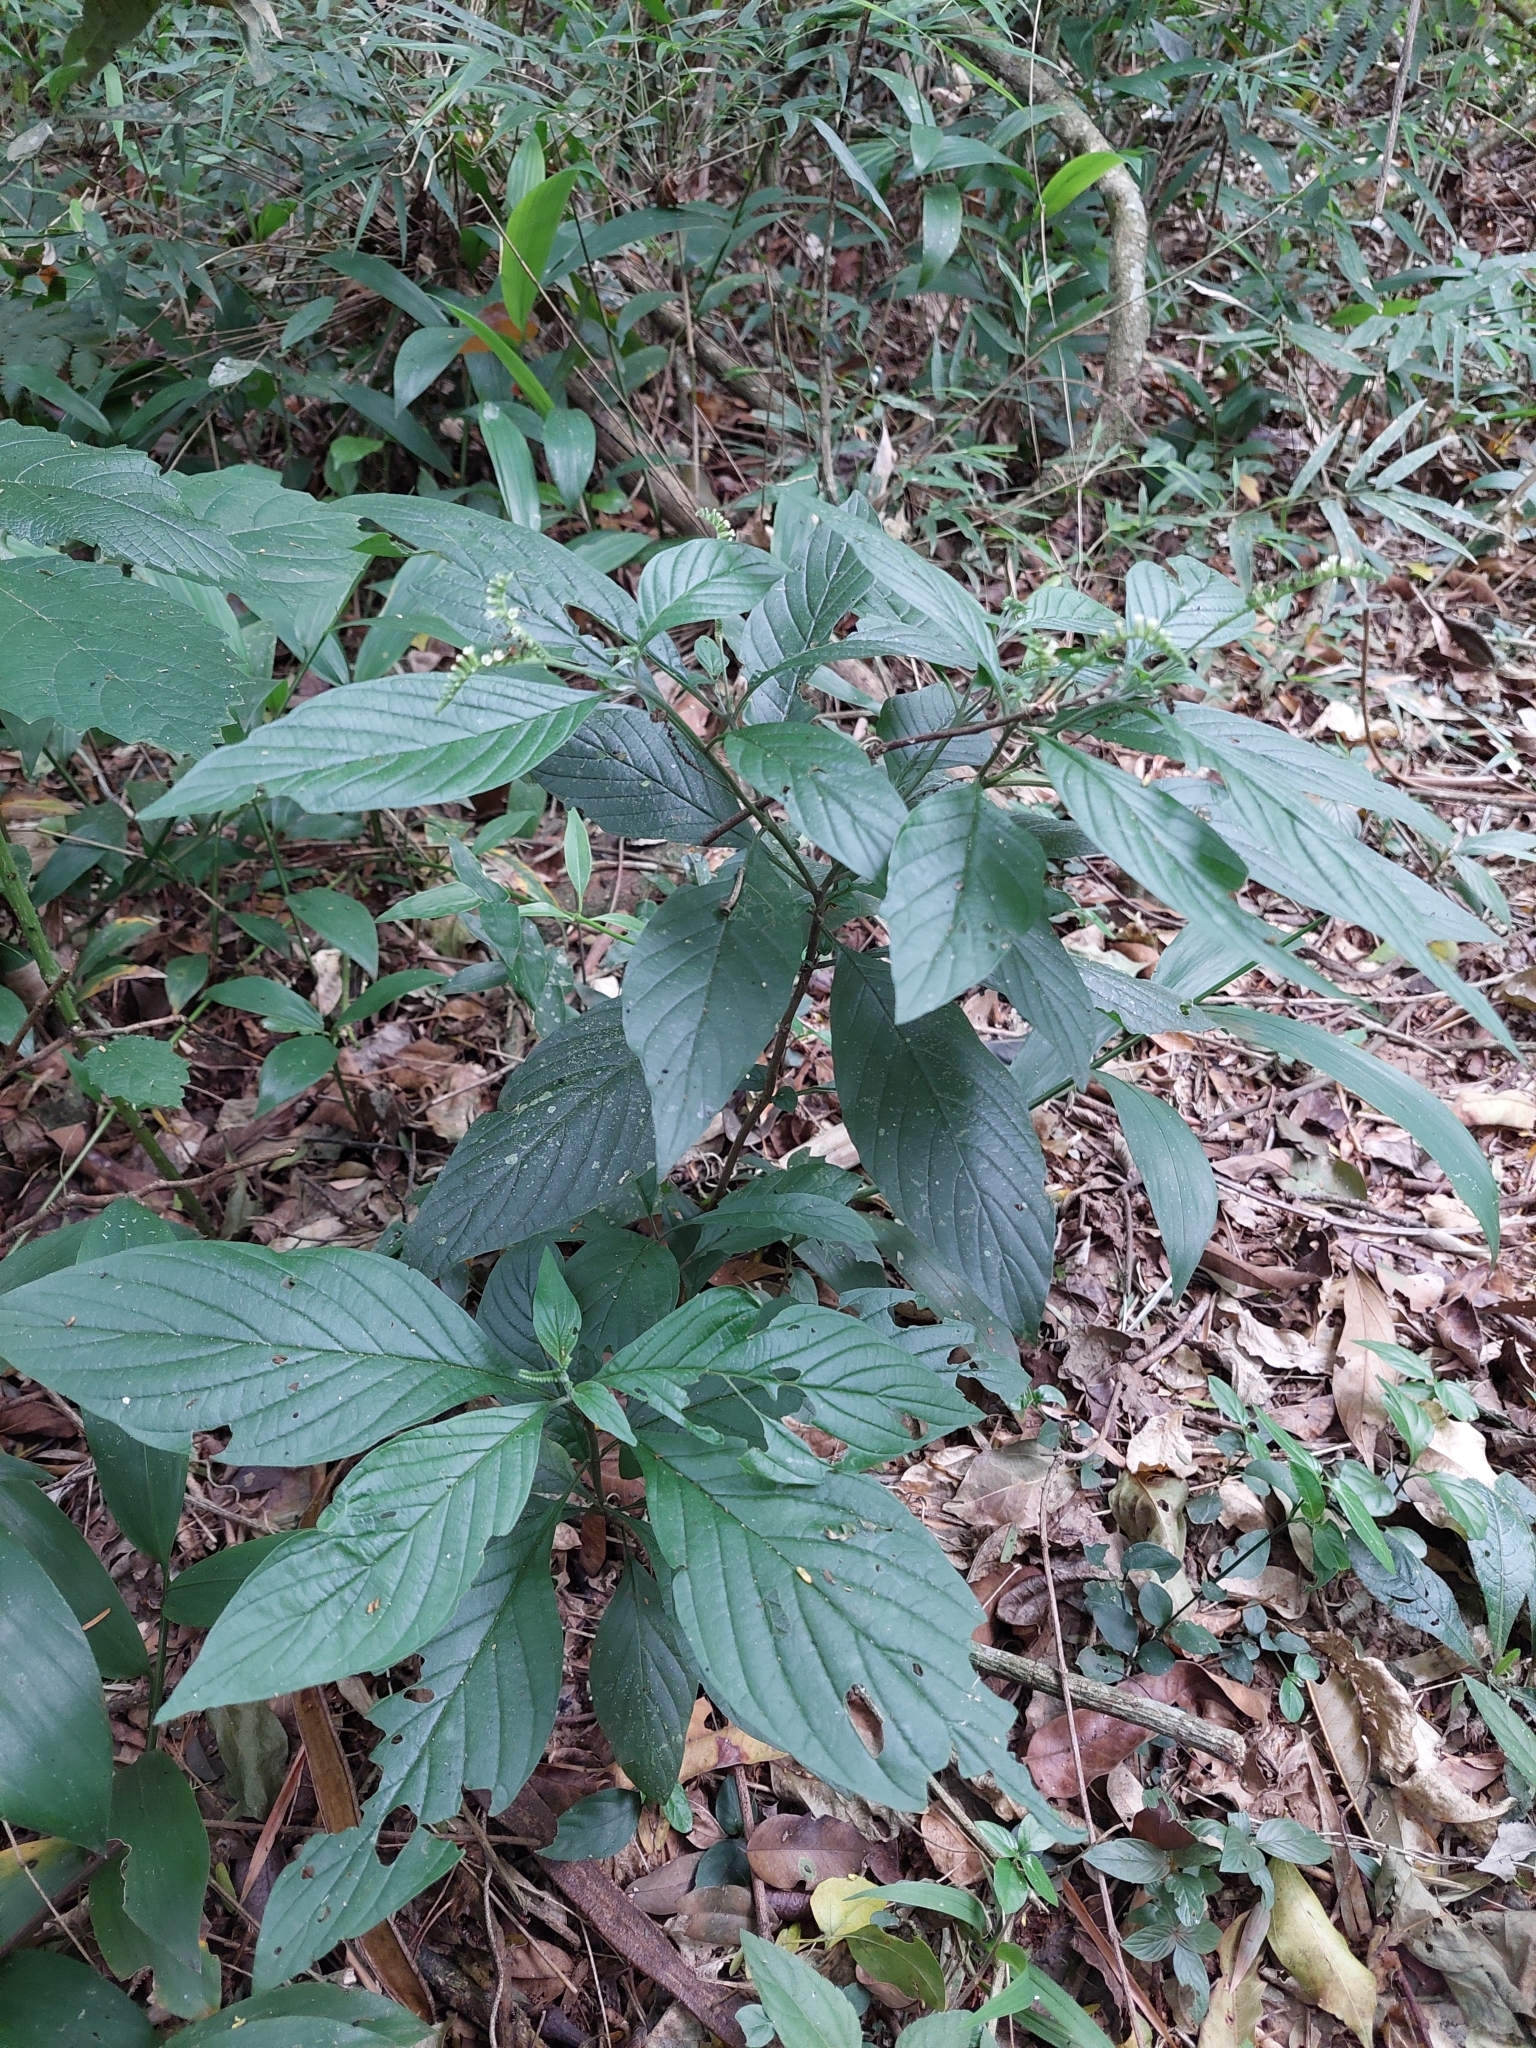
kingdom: Plantae
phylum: Tracheophyta
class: Magnoliopsida
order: Boraginales
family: Heliotropiaceae
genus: Heliotropium
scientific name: Heliotropium tiaridioides
